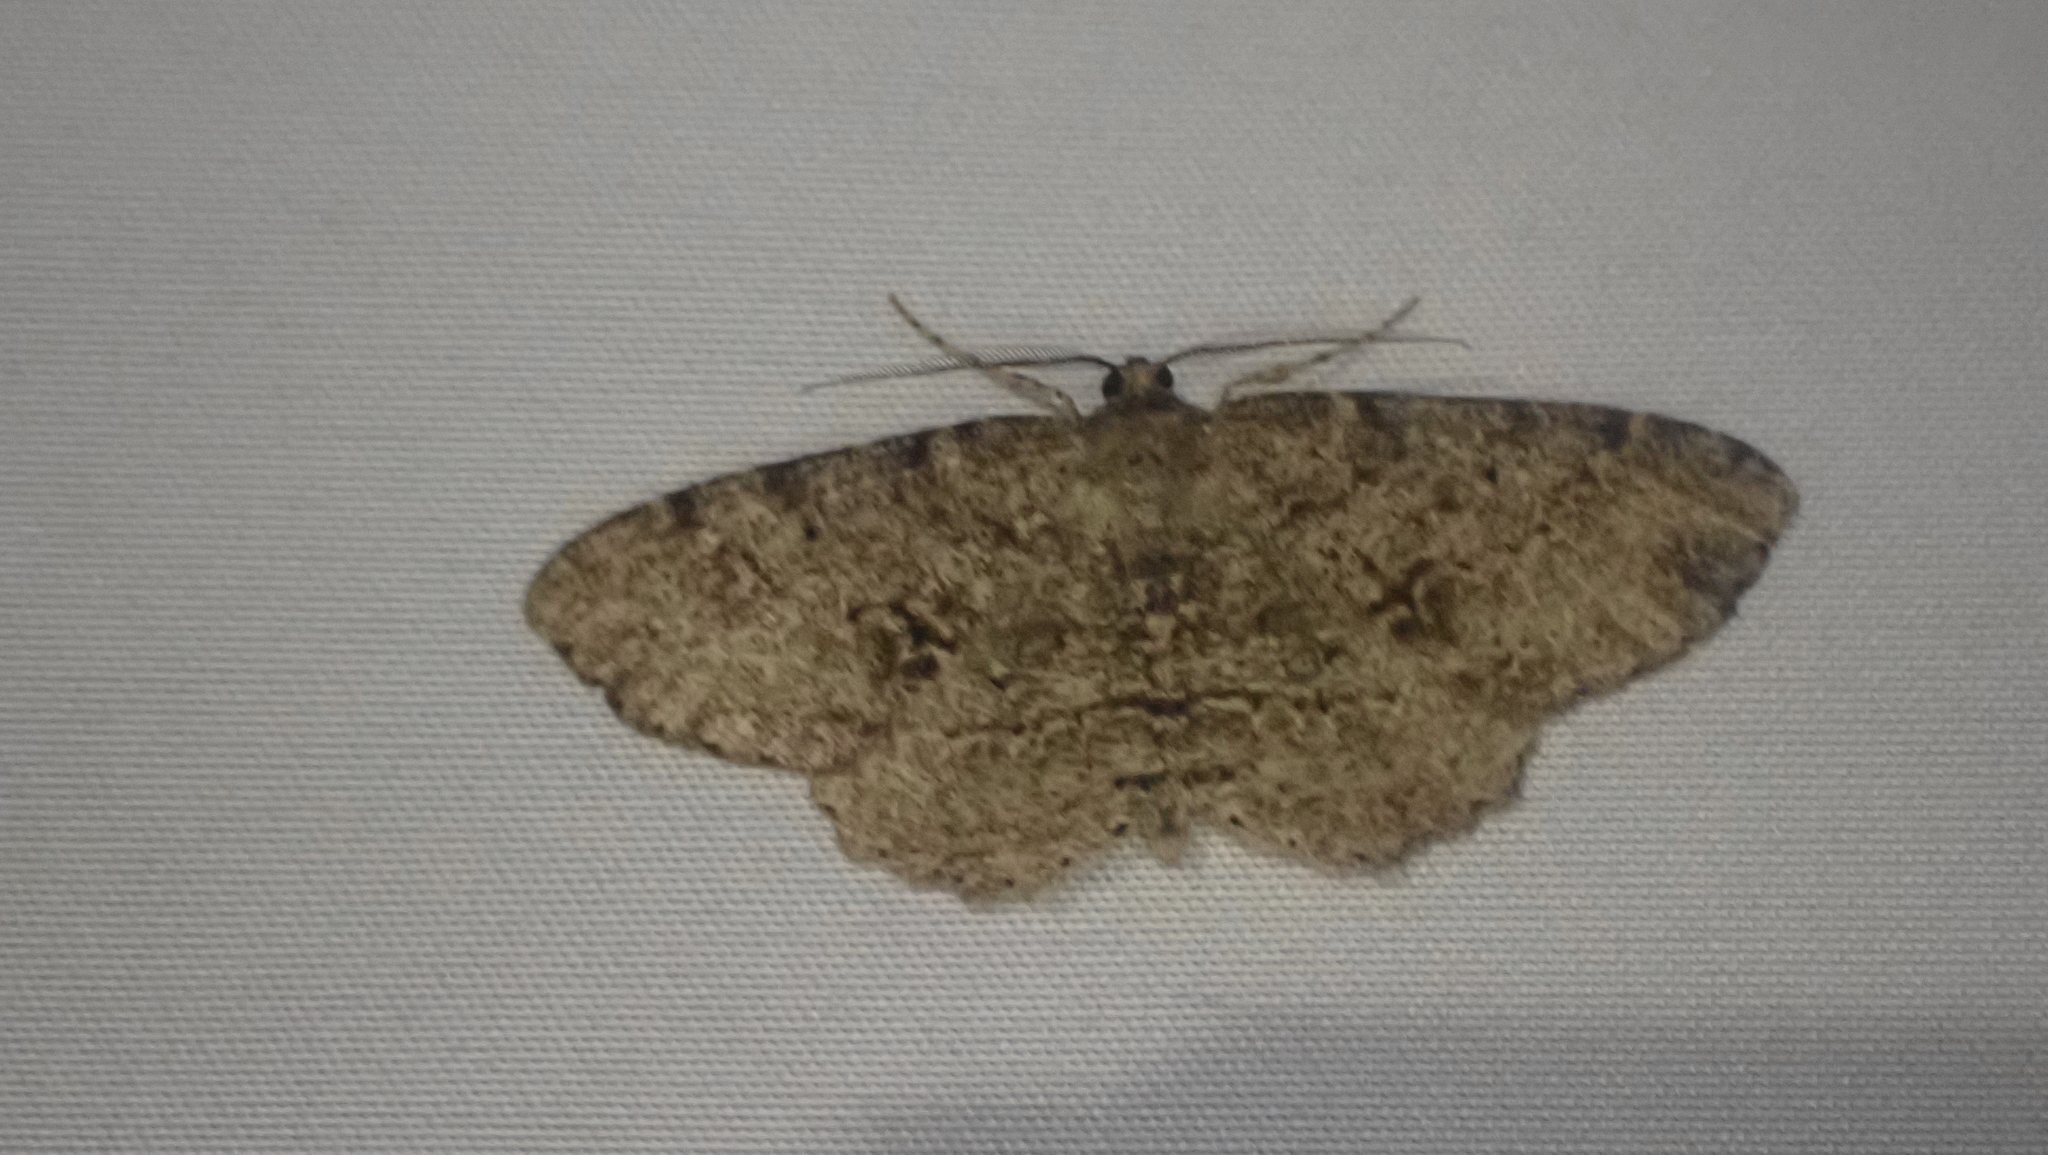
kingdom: Animalia
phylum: Arthropoda
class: Insecta
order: Lepidoptera
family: Geometridae
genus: Melanolophia
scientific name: Melanolophia canadaria
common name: Canadian melanolophia
